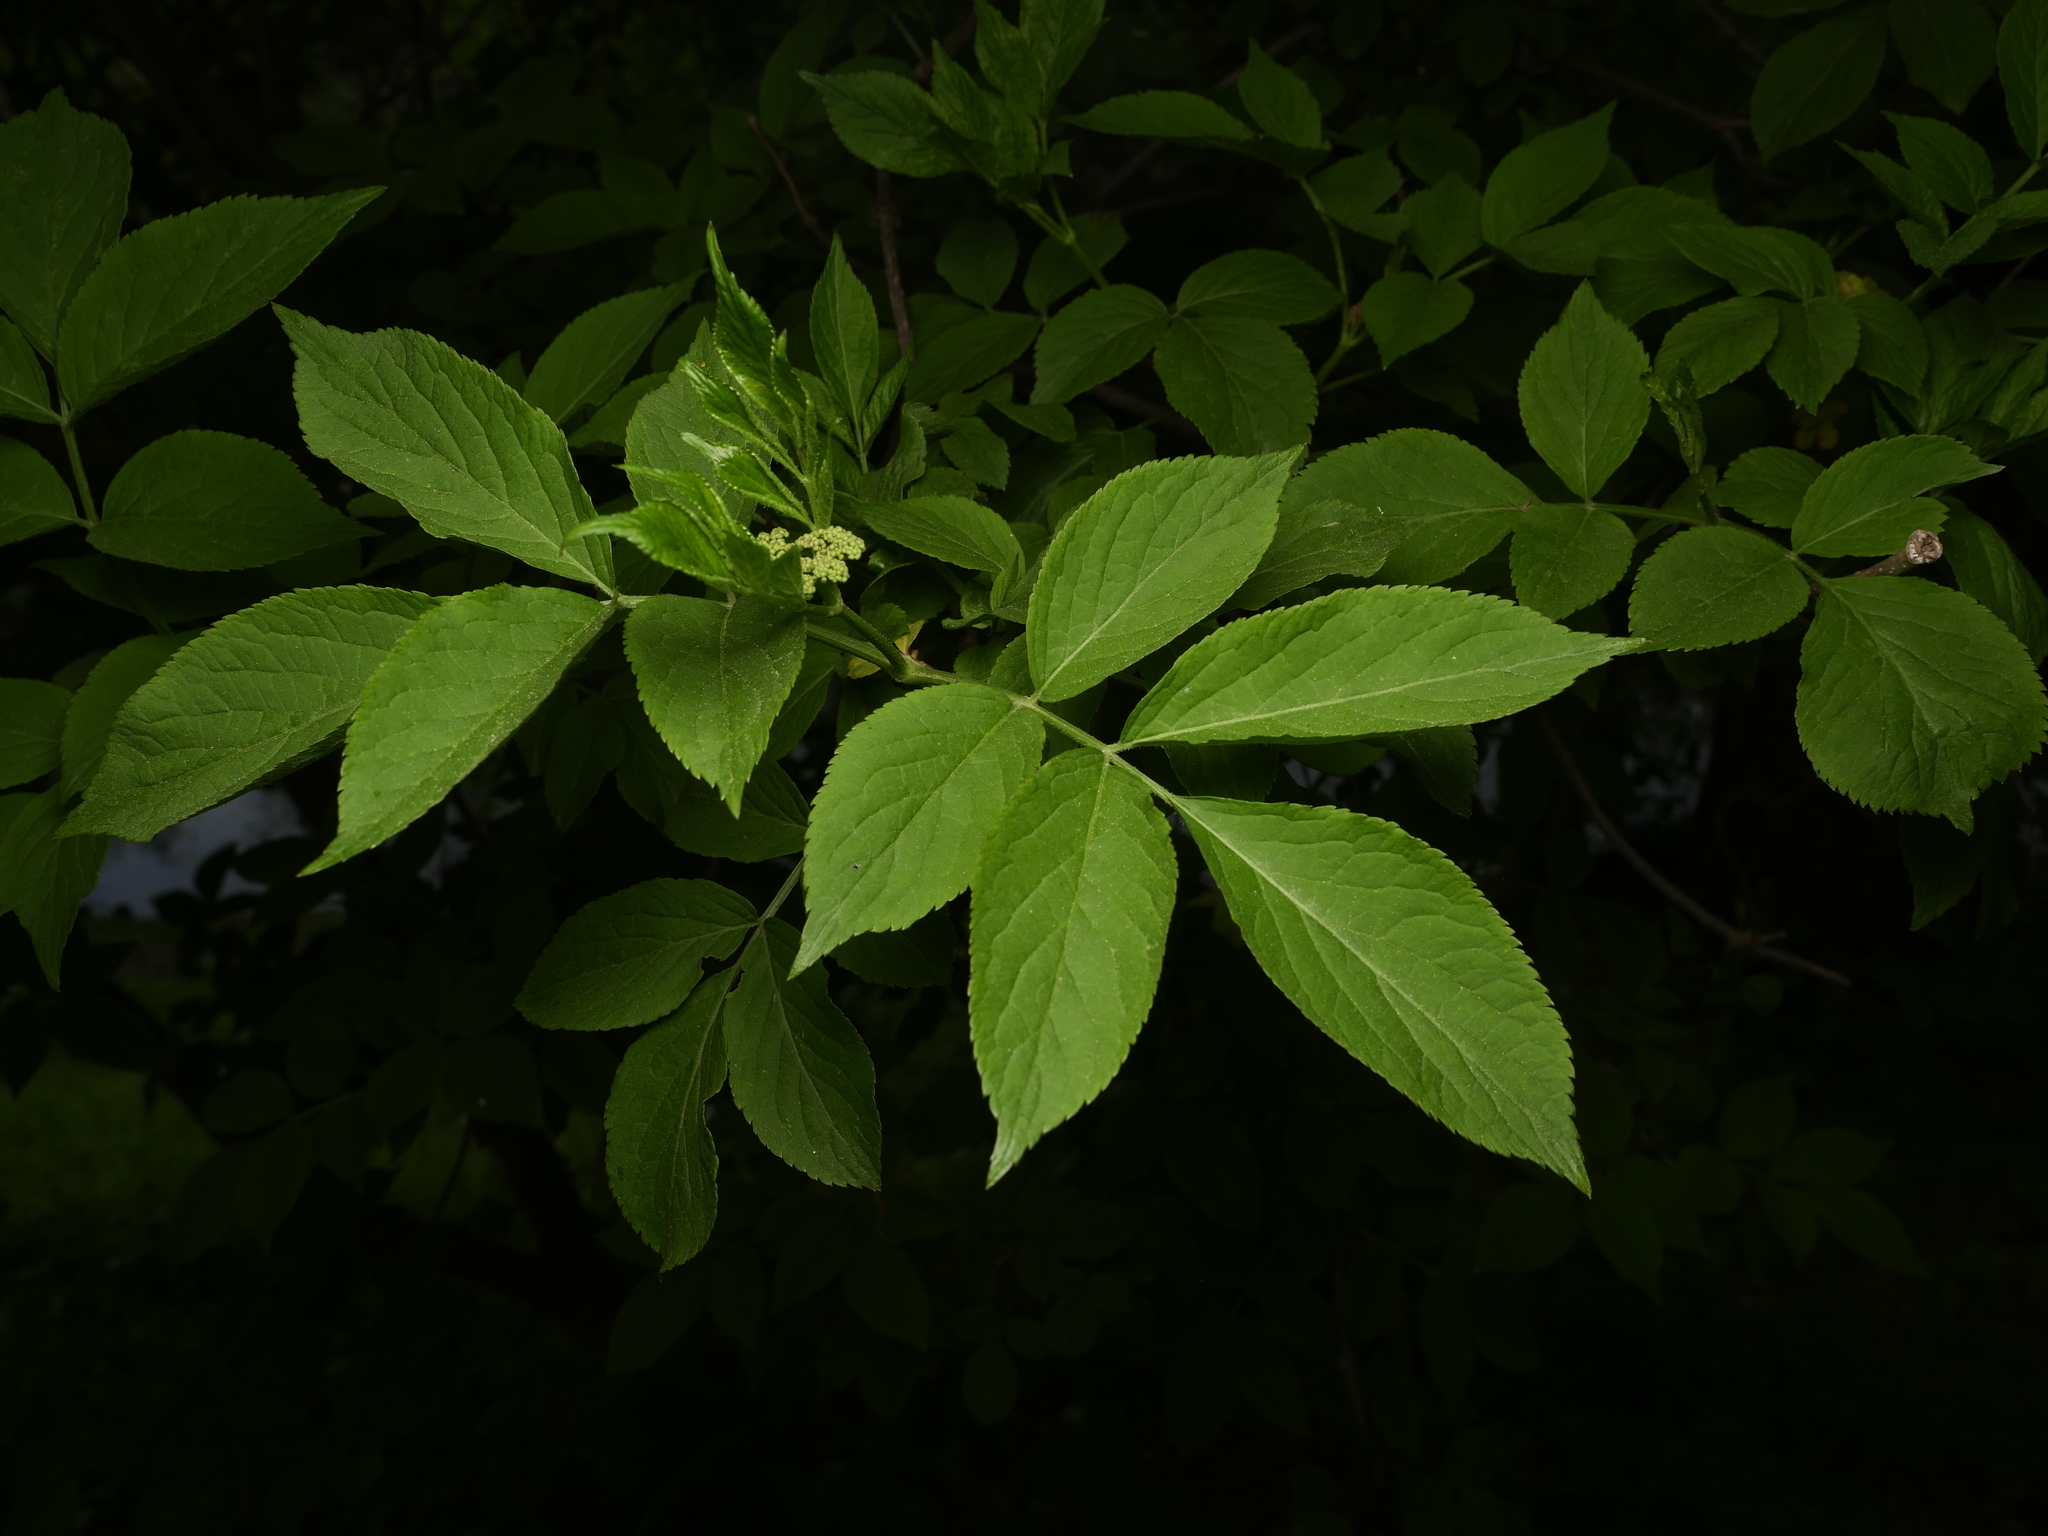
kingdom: Plantae
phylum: Tracheophyta
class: Magnoliopsida
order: Dipsacales
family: Viburnaceae
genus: Sambucus
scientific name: Sambucus nigra
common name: Elder
